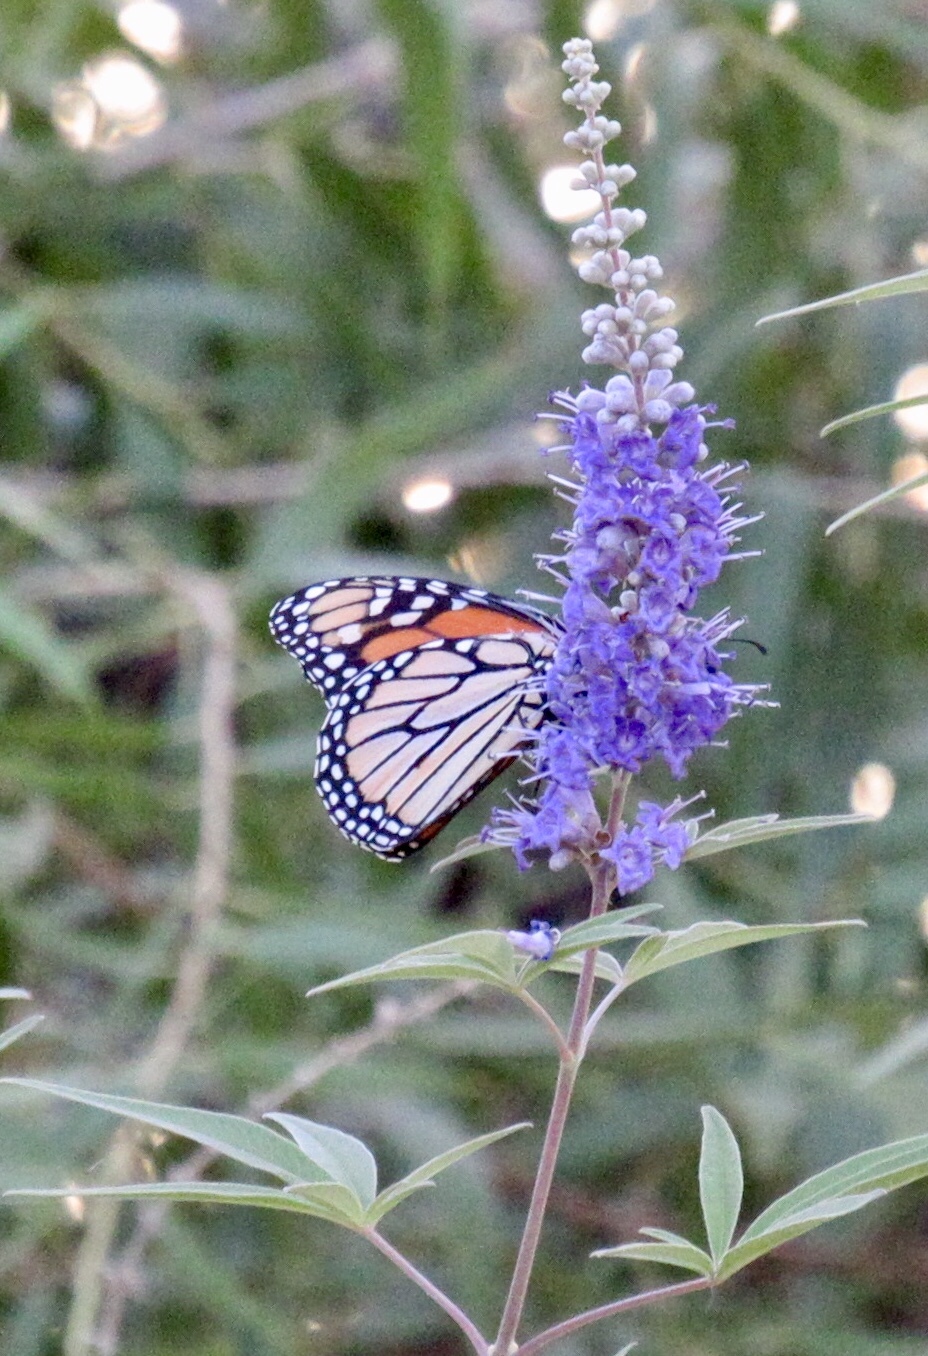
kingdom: Animalia
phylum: Arthropoda
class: Insecta
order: Lepidoptera
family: Nymphalidae
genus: Danaus
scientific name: Danaus plexippus
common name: Monarch
